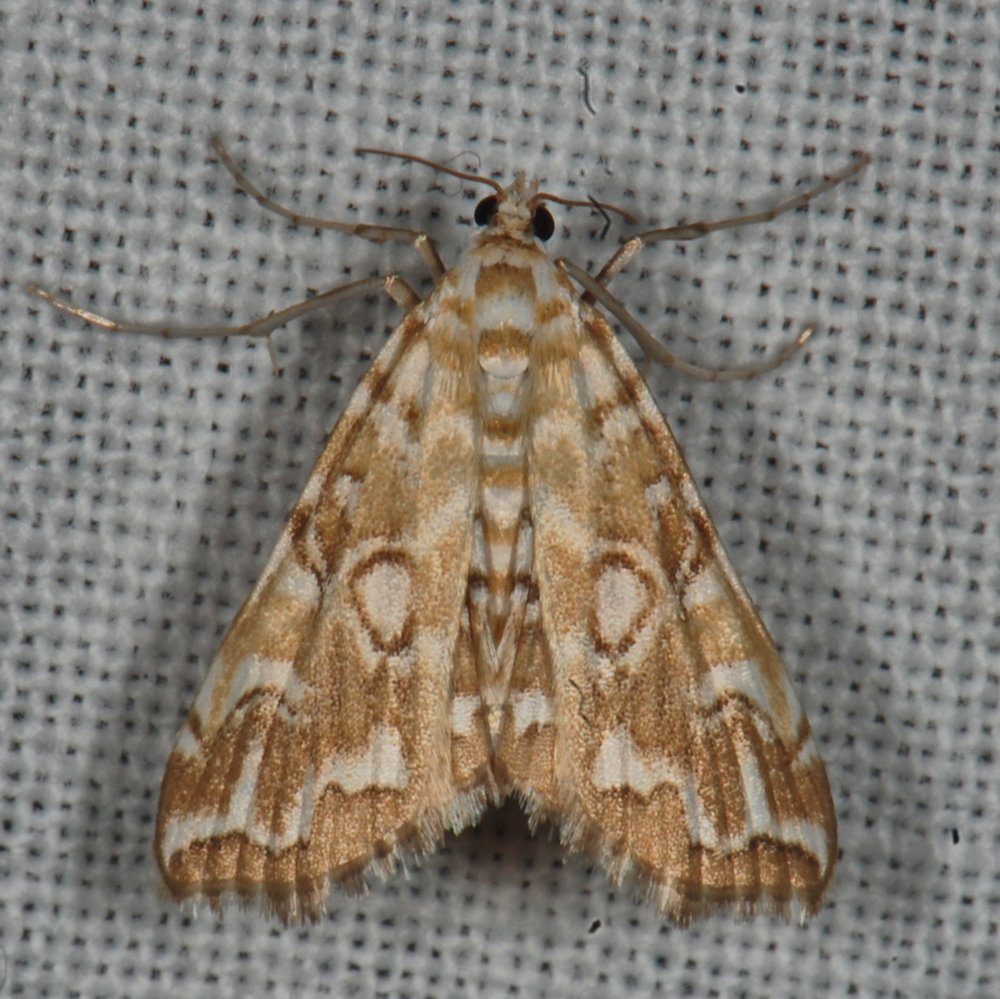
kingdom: Animalia
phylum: Arthropoda
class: Insecta
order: Lepidoptera
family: Crambidae
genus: Elophila
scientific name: Elophila icciusalis
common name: Pondside pyralid moth
